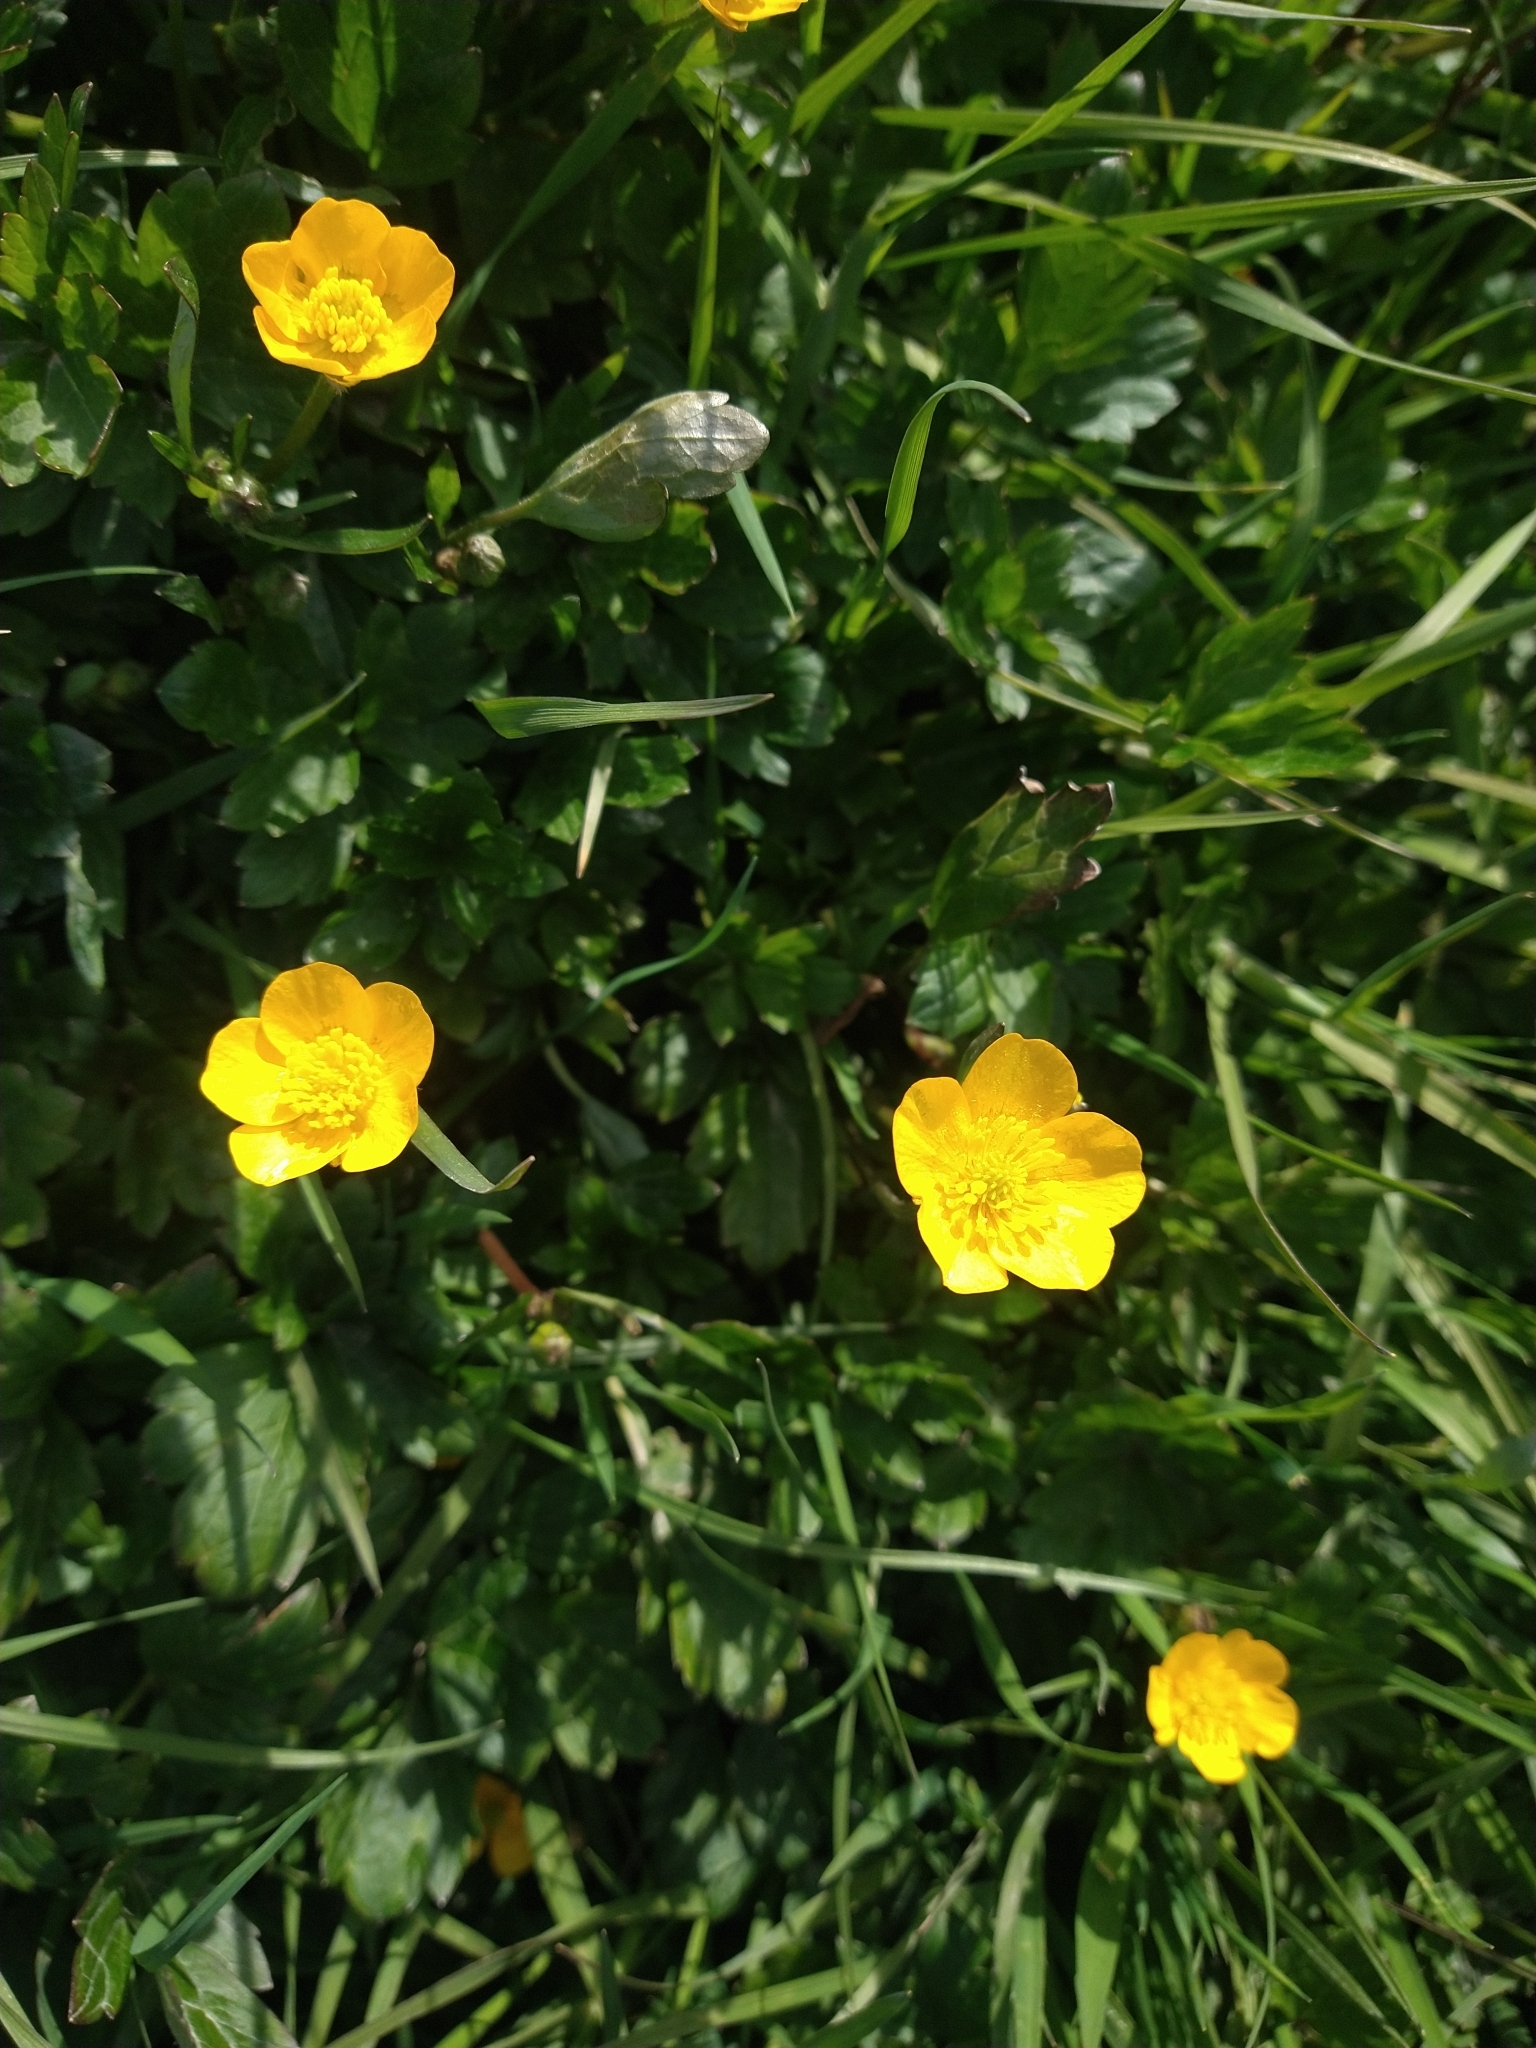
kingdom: Plantae
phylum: Tracheophyta
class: Magnoliopsida
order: Ranunculales
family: Ranunculaceae
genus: Ranunculus
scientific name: Ranunculus repens
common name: Creeping buttercup
